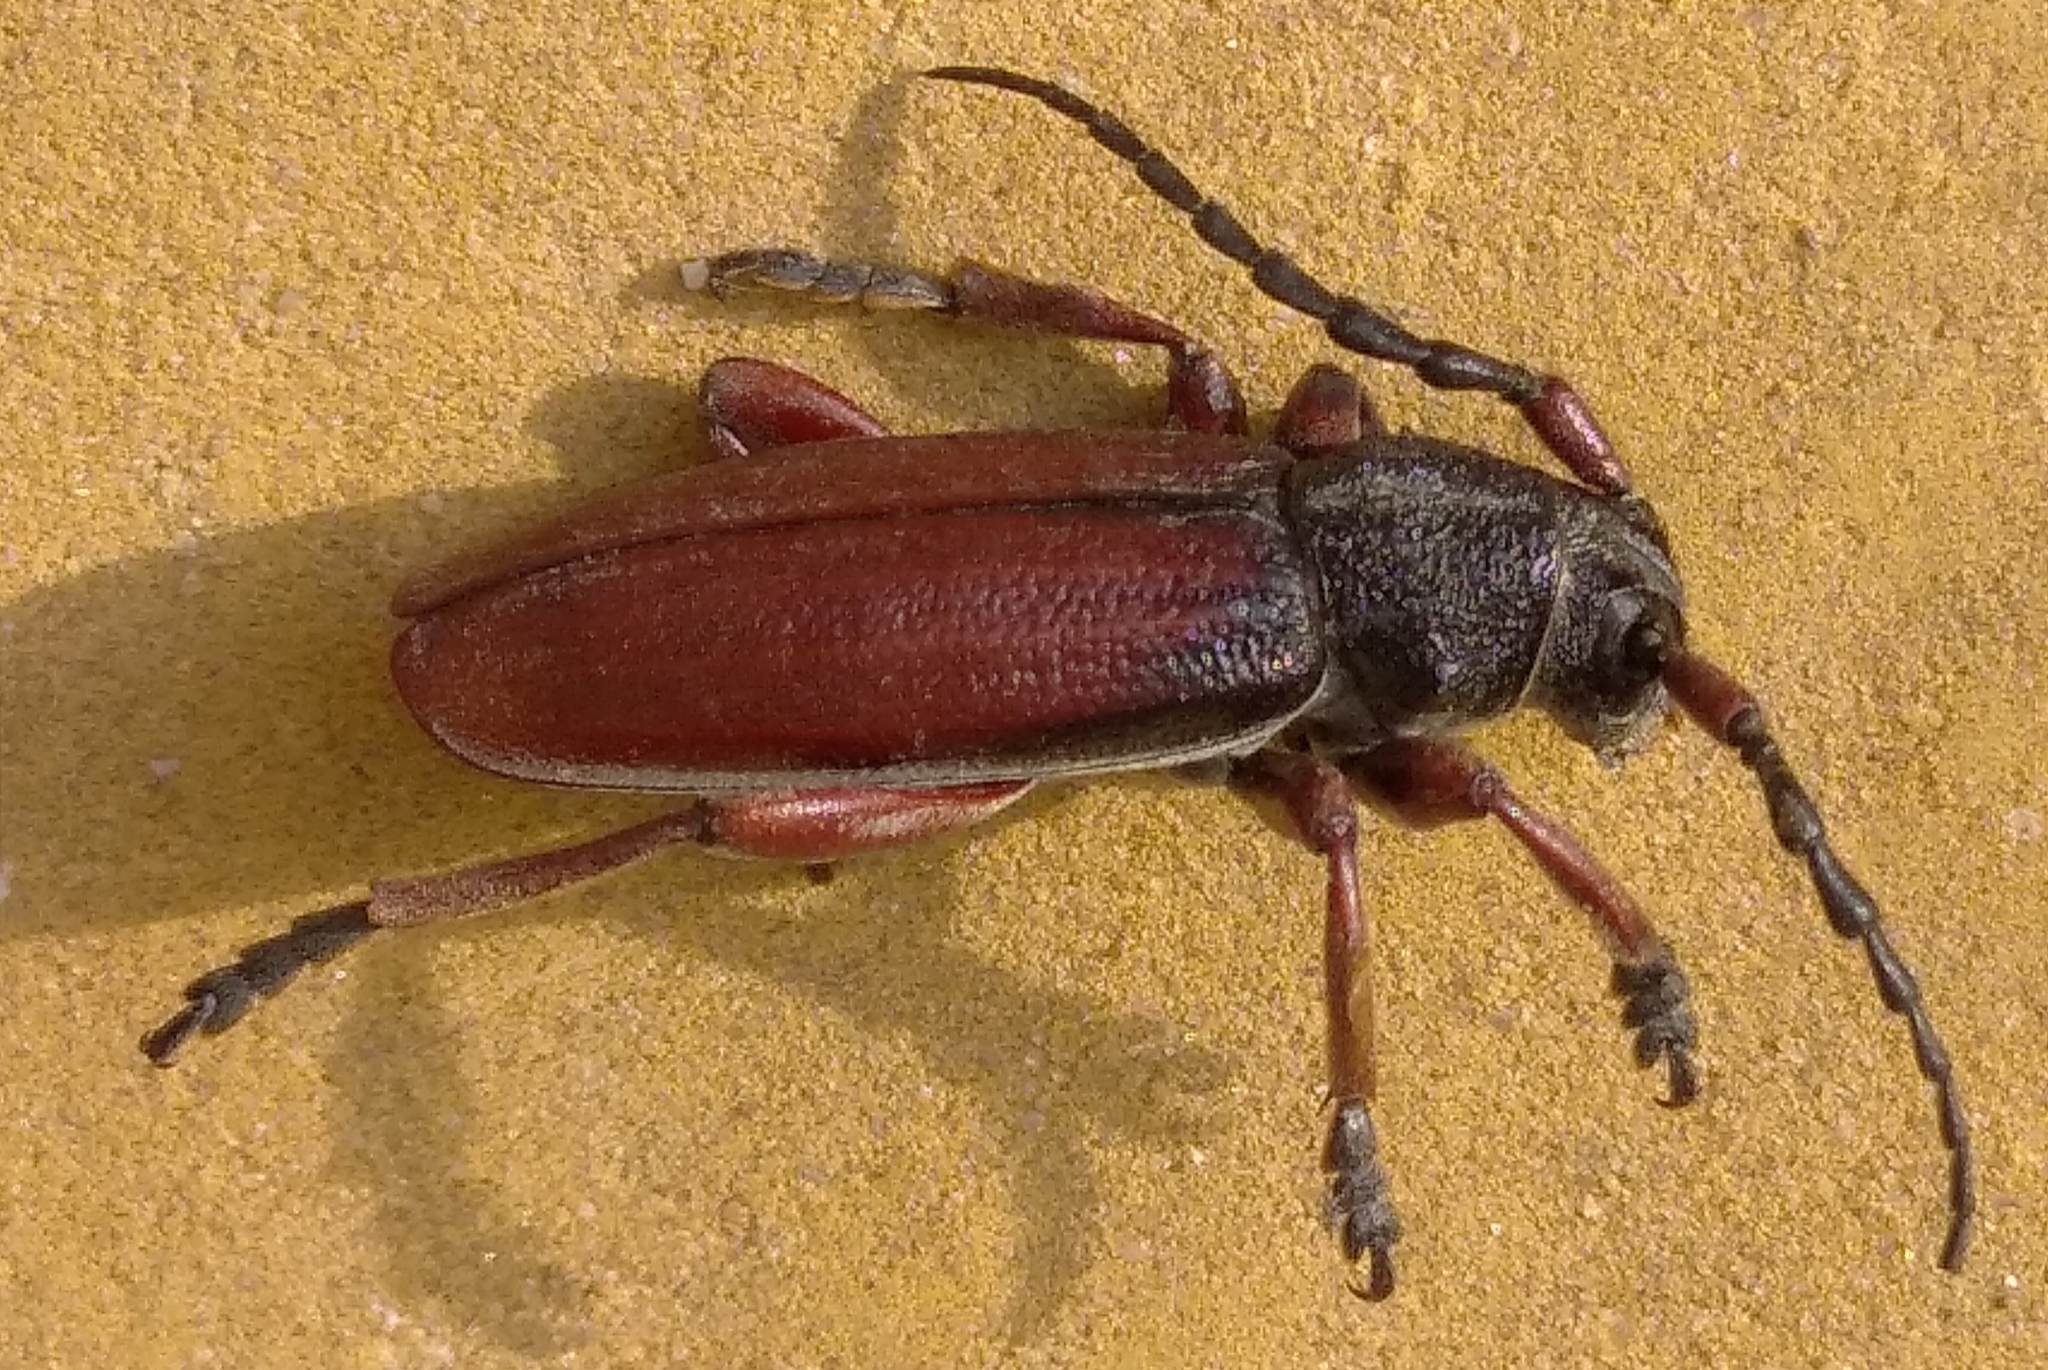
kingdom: Animalia
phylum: Arthropoda
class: Insecta
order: Coleoptera
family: Cerambycidae
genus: Dorcadion
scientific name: Dorcadion fulvum
